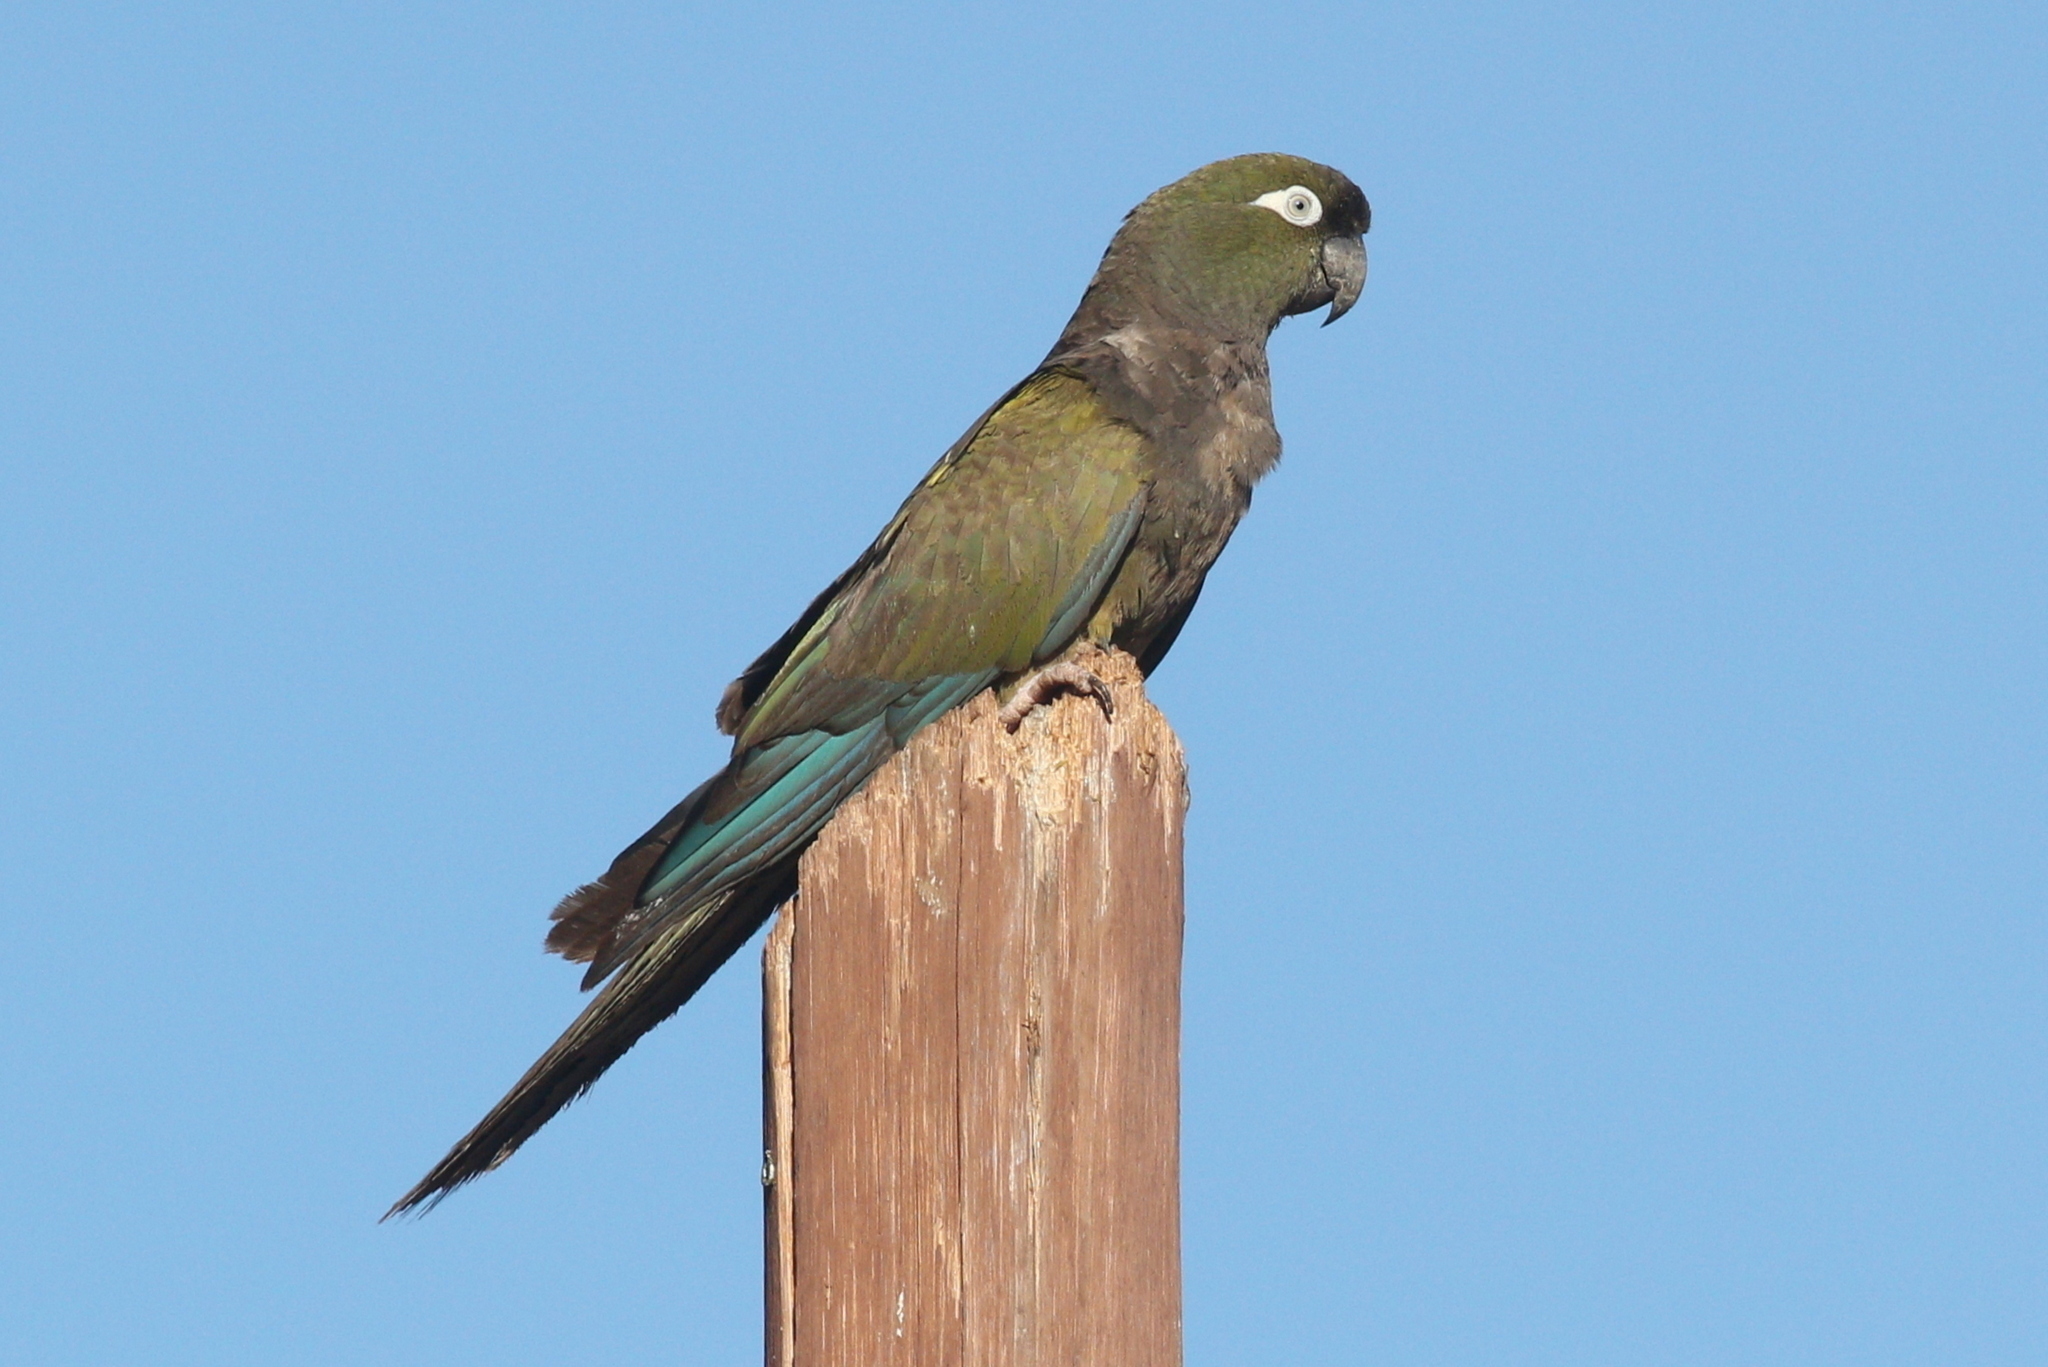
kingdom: Animalia
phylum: Chordata
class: Aves
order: Psittaciformes
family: Psittacidae
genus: Cyanoliseus
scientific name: Cyanoliseus patagonus
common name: Burrowing parrot
